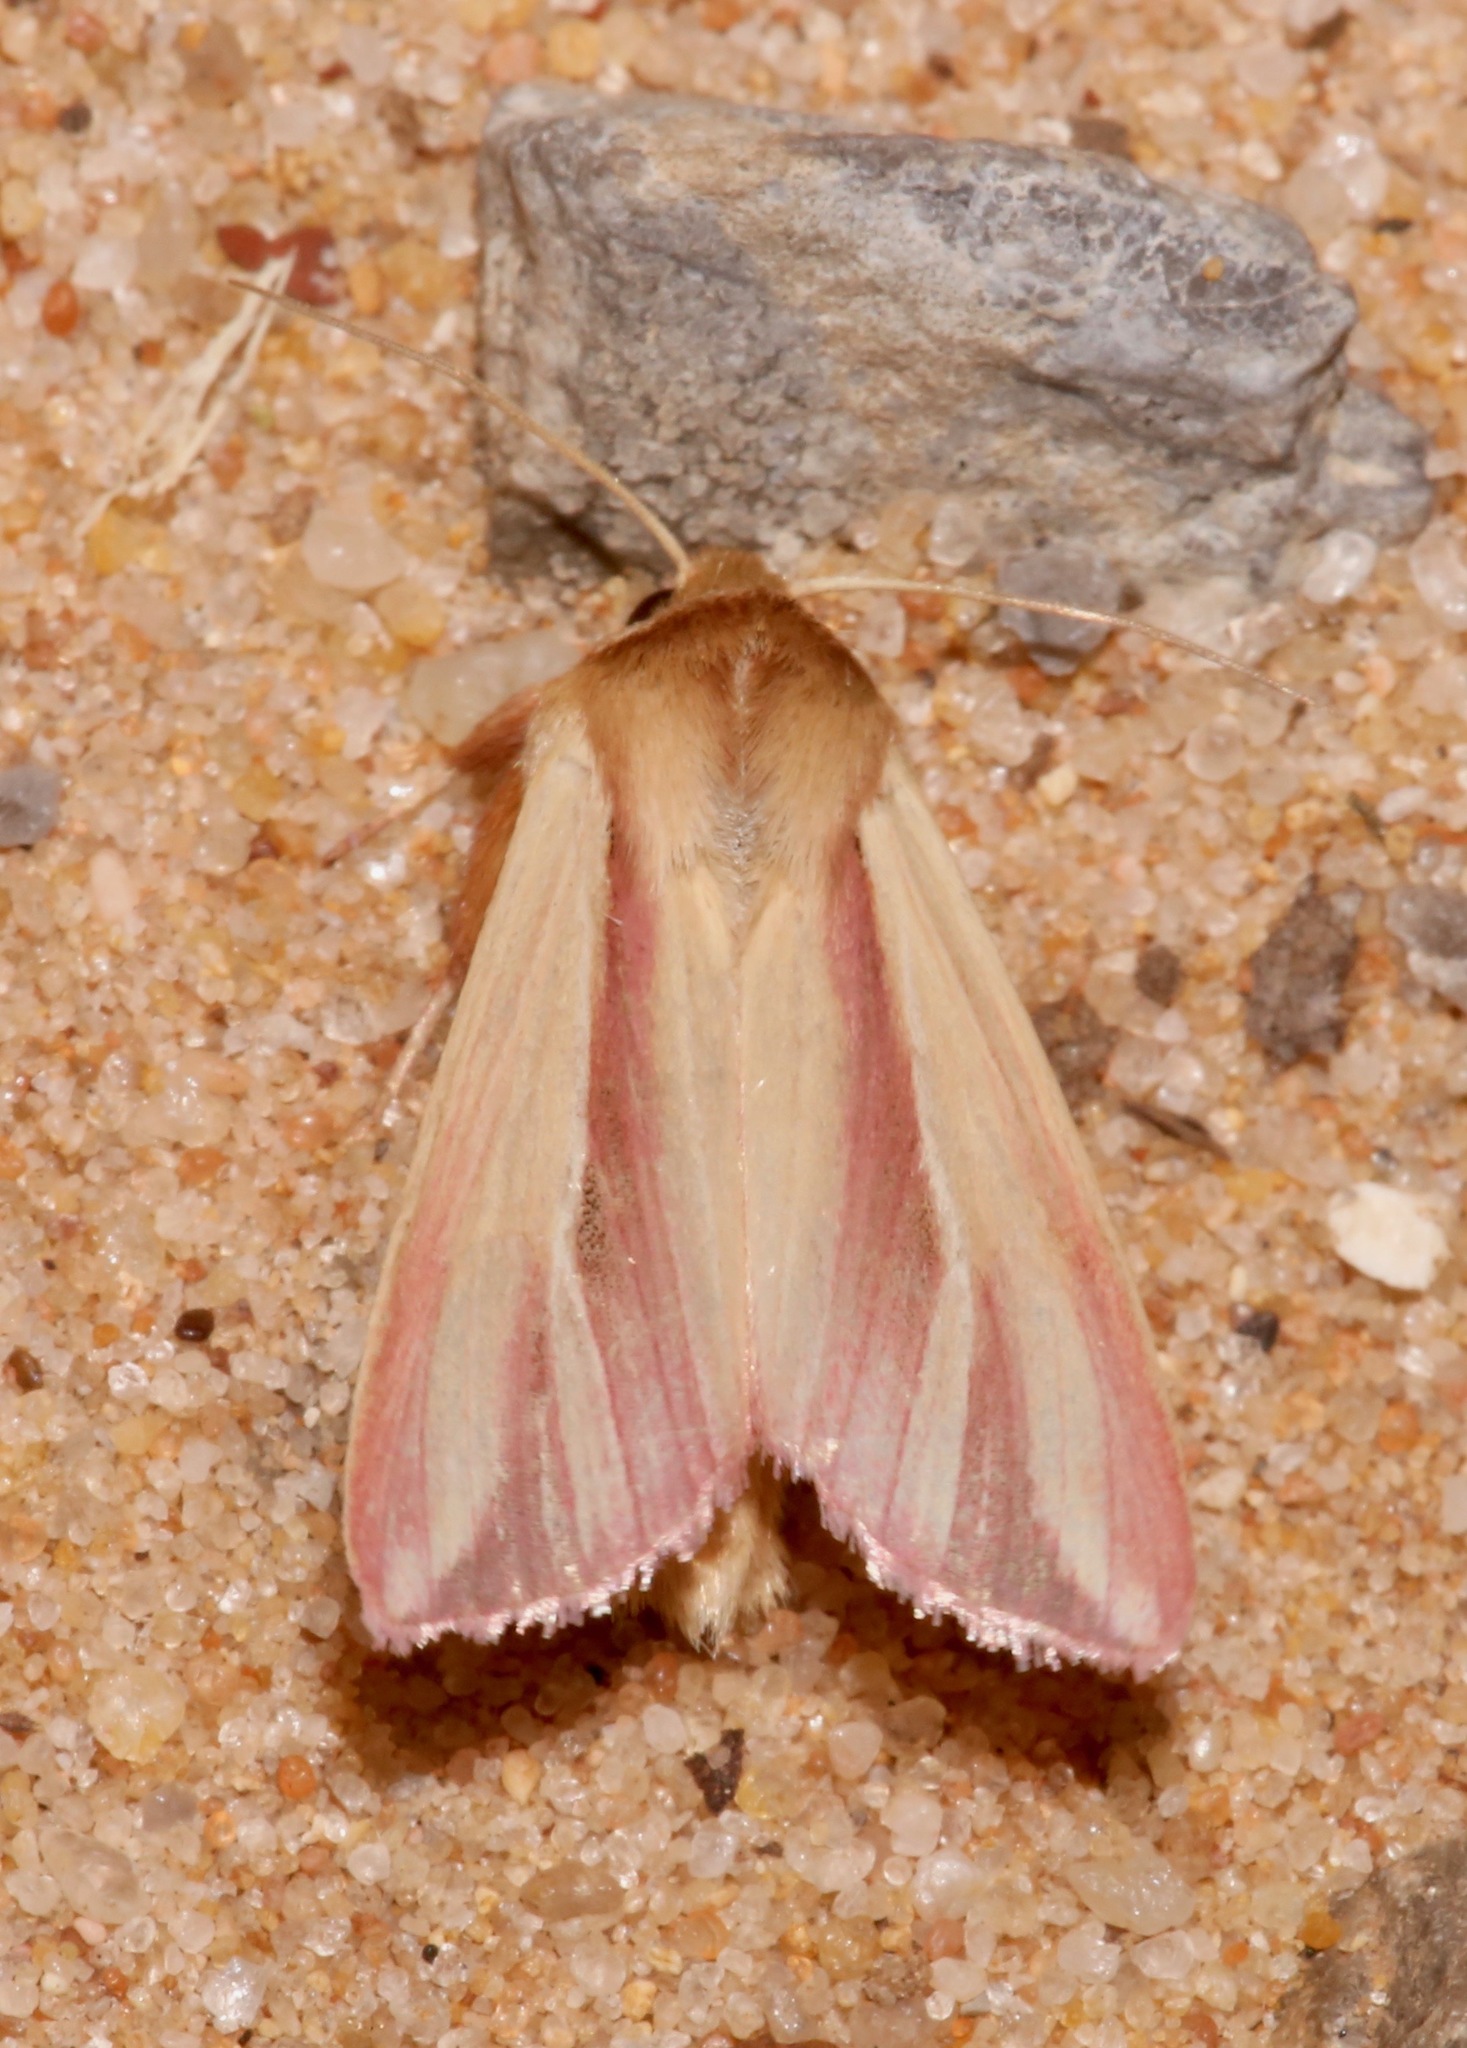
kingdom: Animalia
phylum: Arthropoda
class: Insecta
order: Lepidoptera
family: Noctuidae
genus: Dargida
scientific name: Dargida rubripennis
